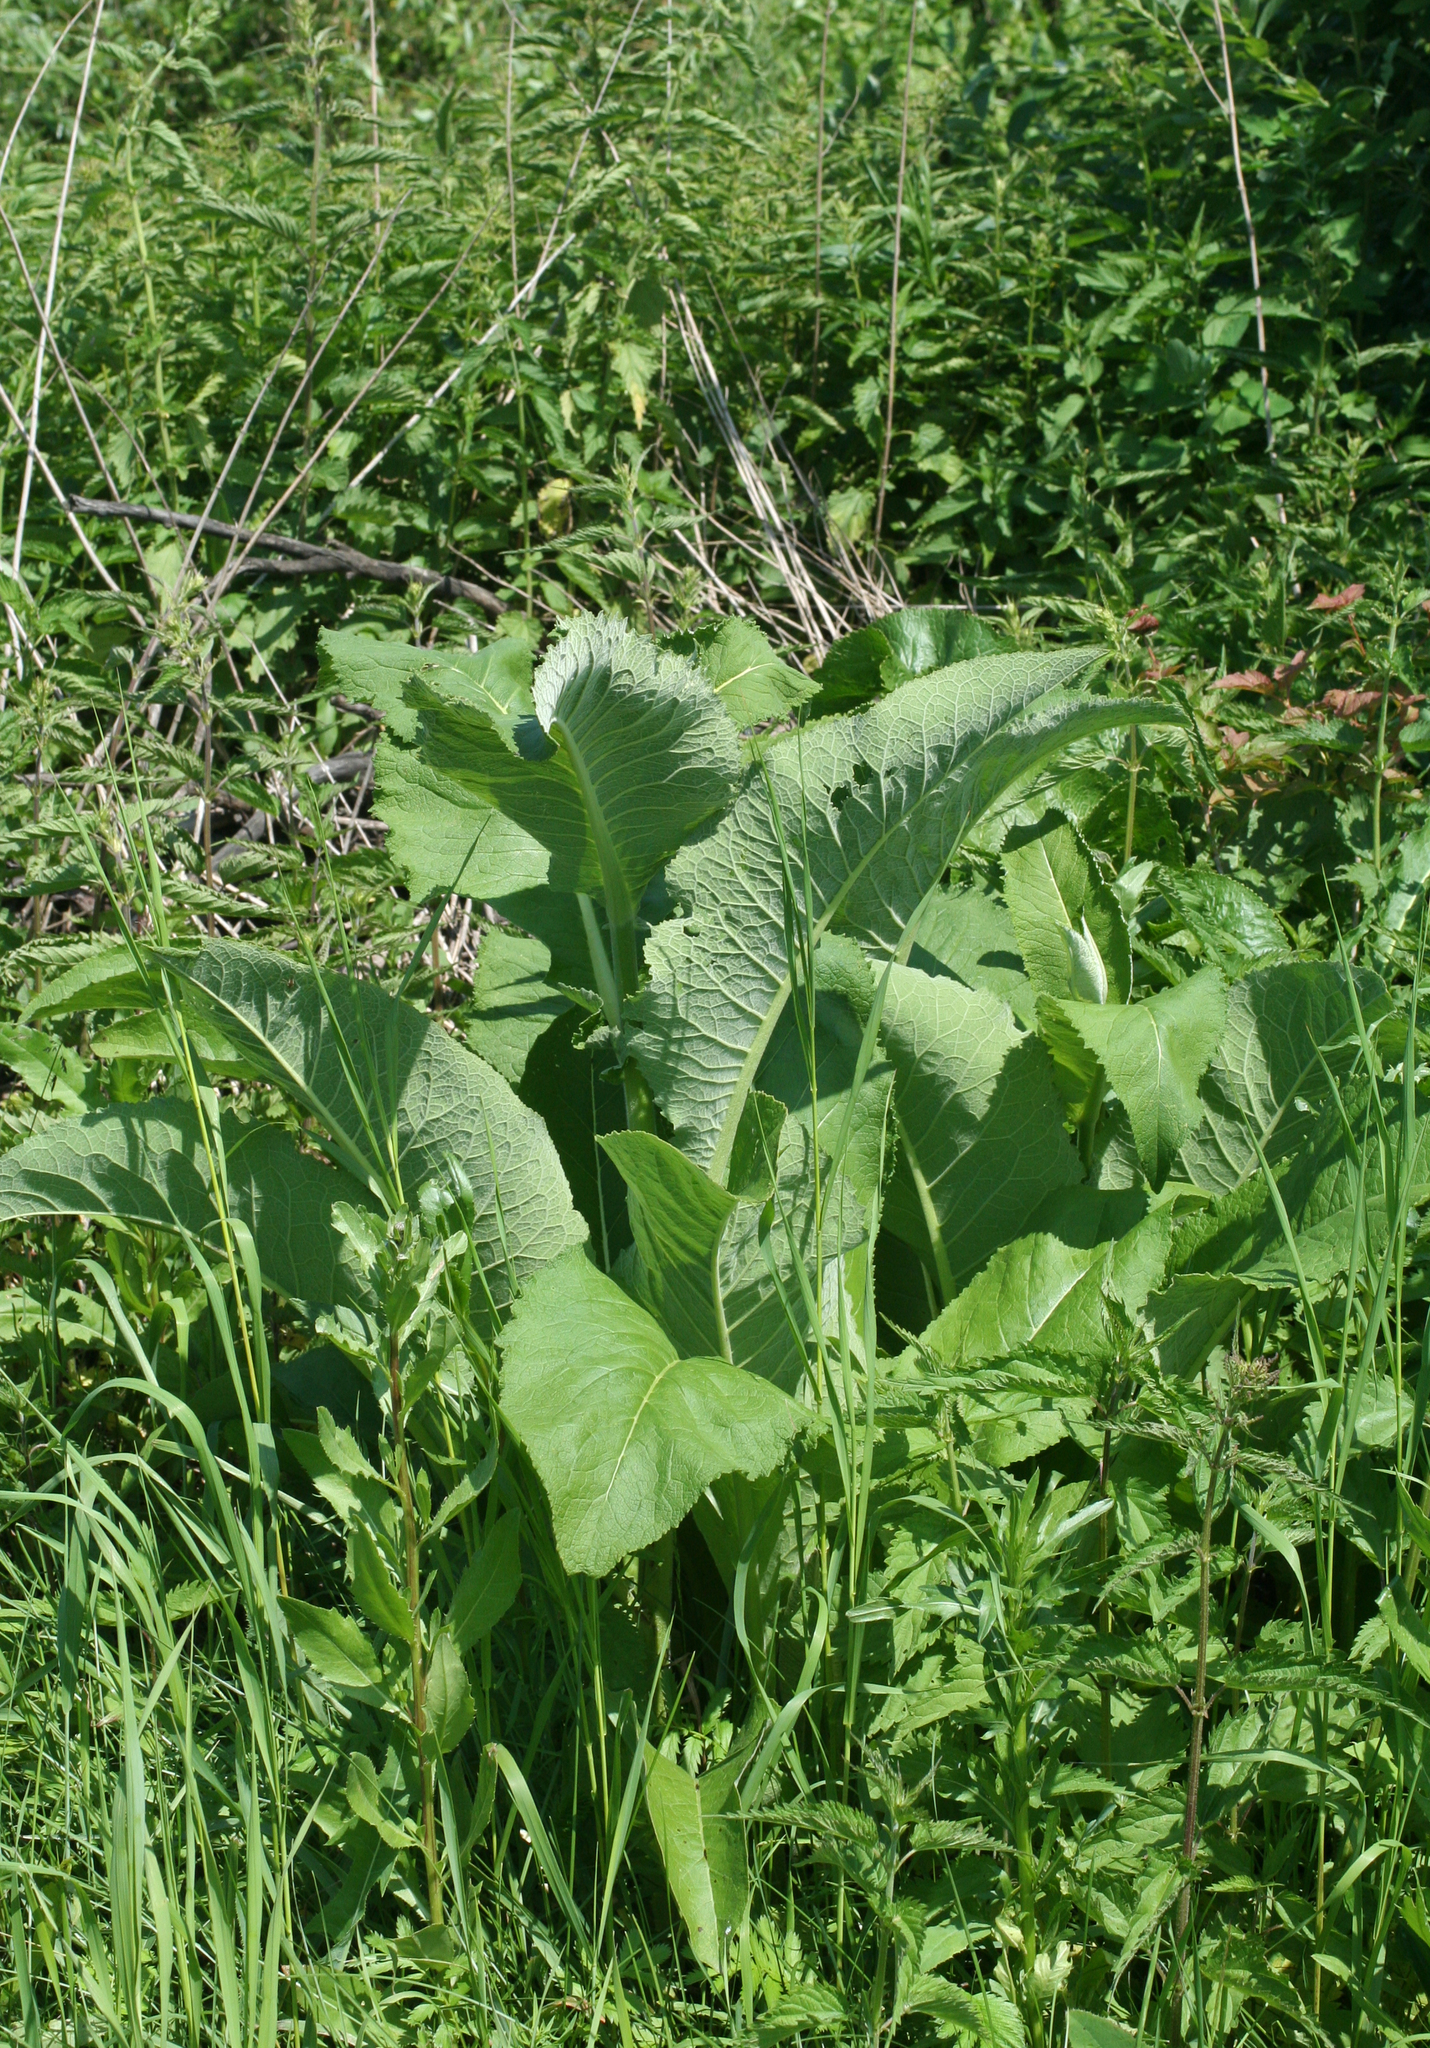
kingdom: Plantae
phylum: Tracheophyta
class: Magnoliopsida
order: Asterales
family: Asteraceae
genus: Inula
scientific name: Inula helenium
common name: Elecampane
